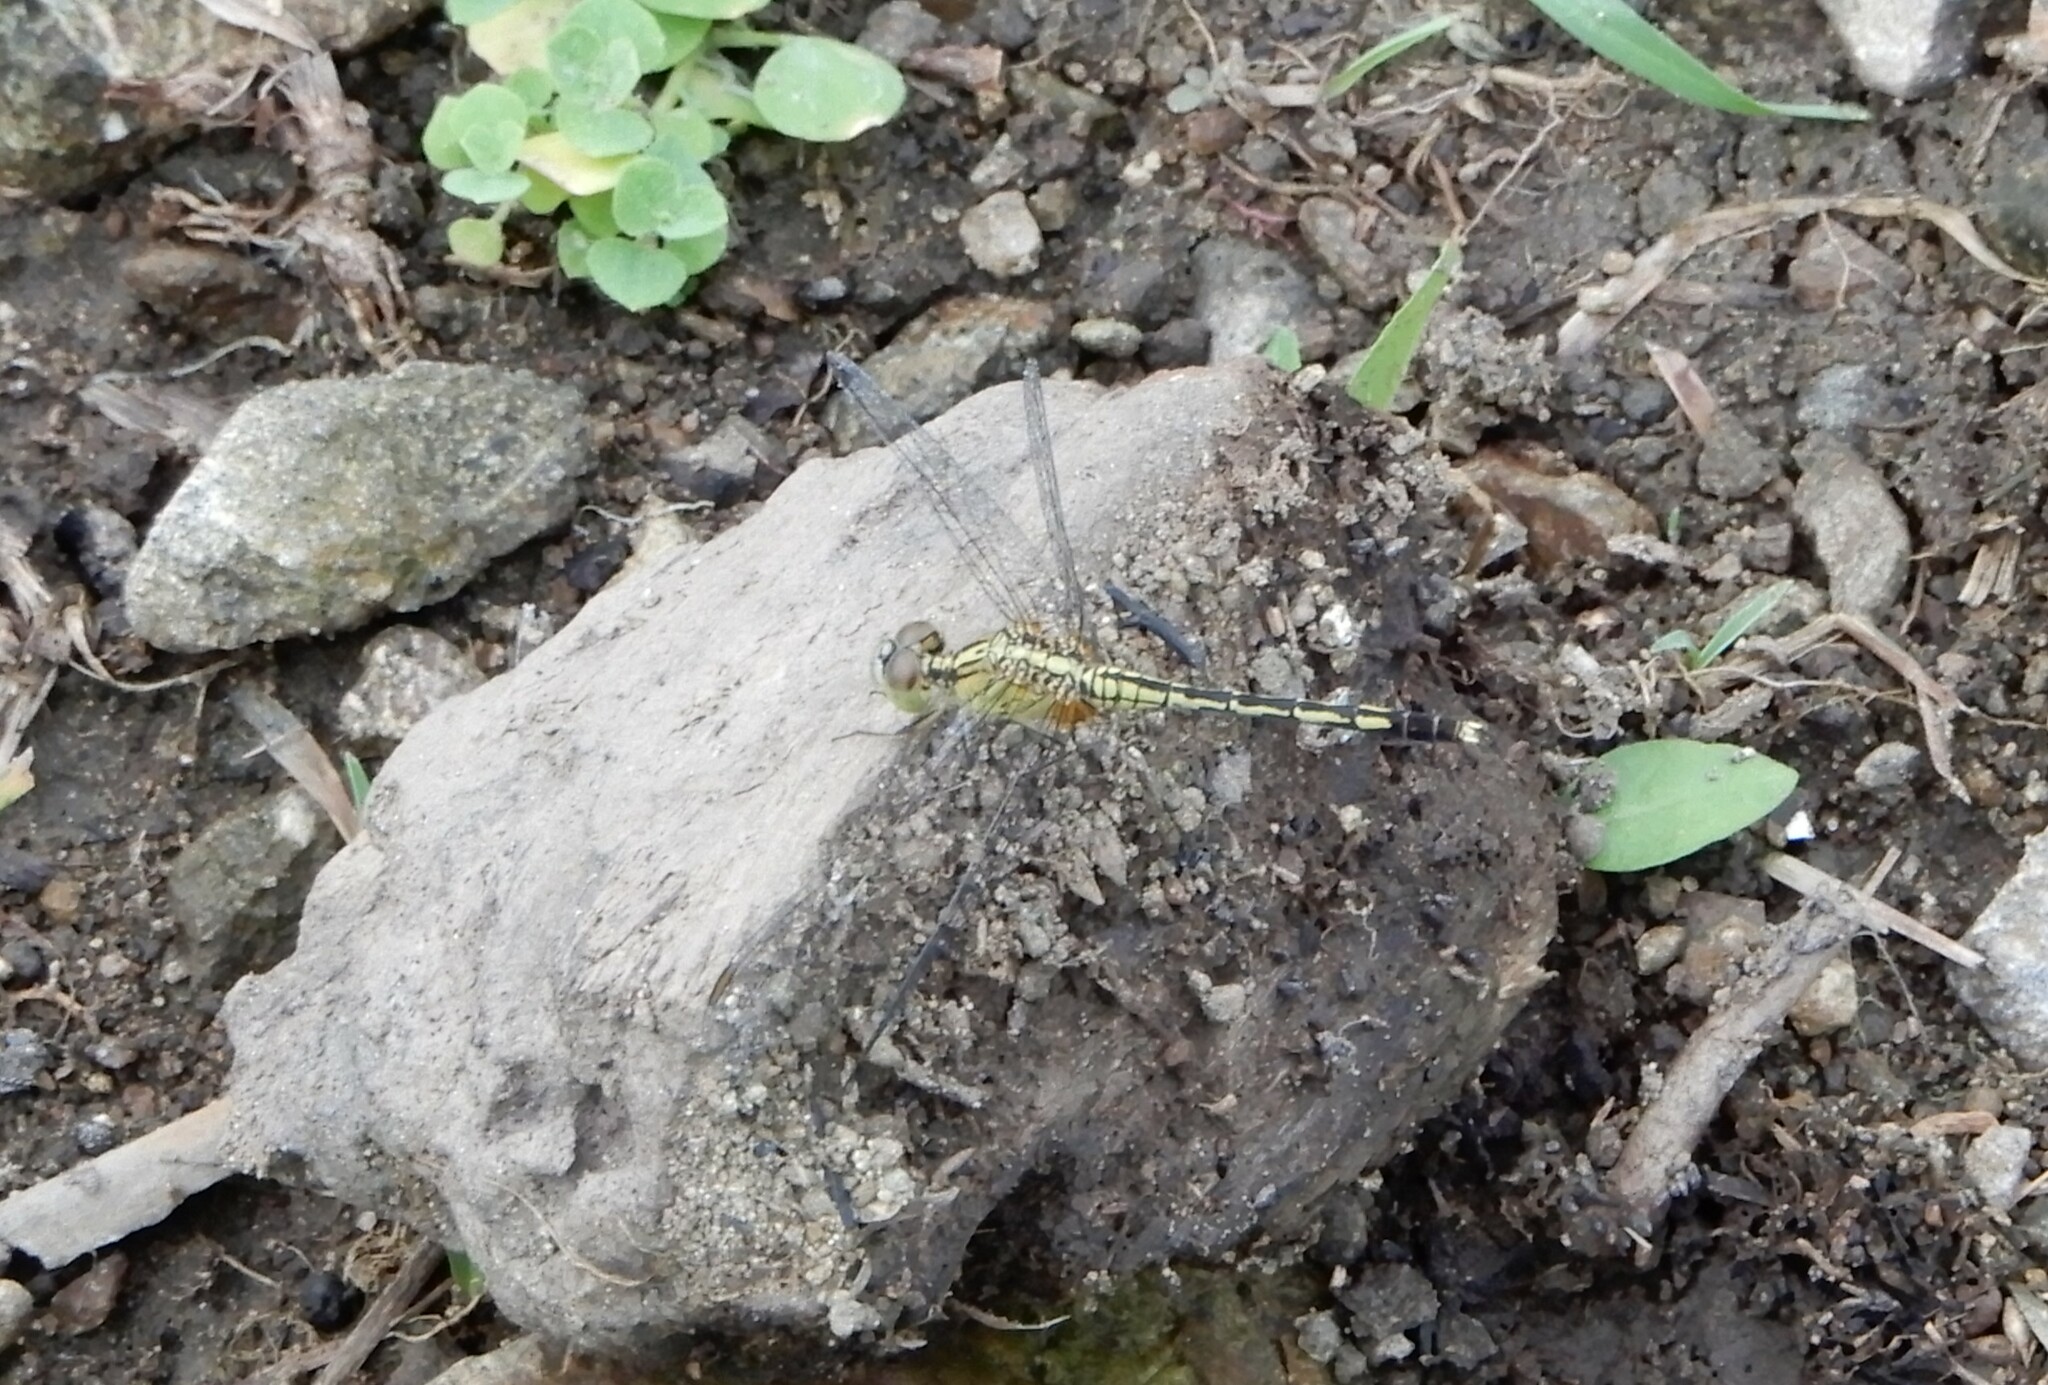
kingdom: Animalia
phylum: Arthropoda
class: Insecta
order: Odonata
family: Libellulidae
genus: Diplacodes
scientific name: Diplacodes trivialis
